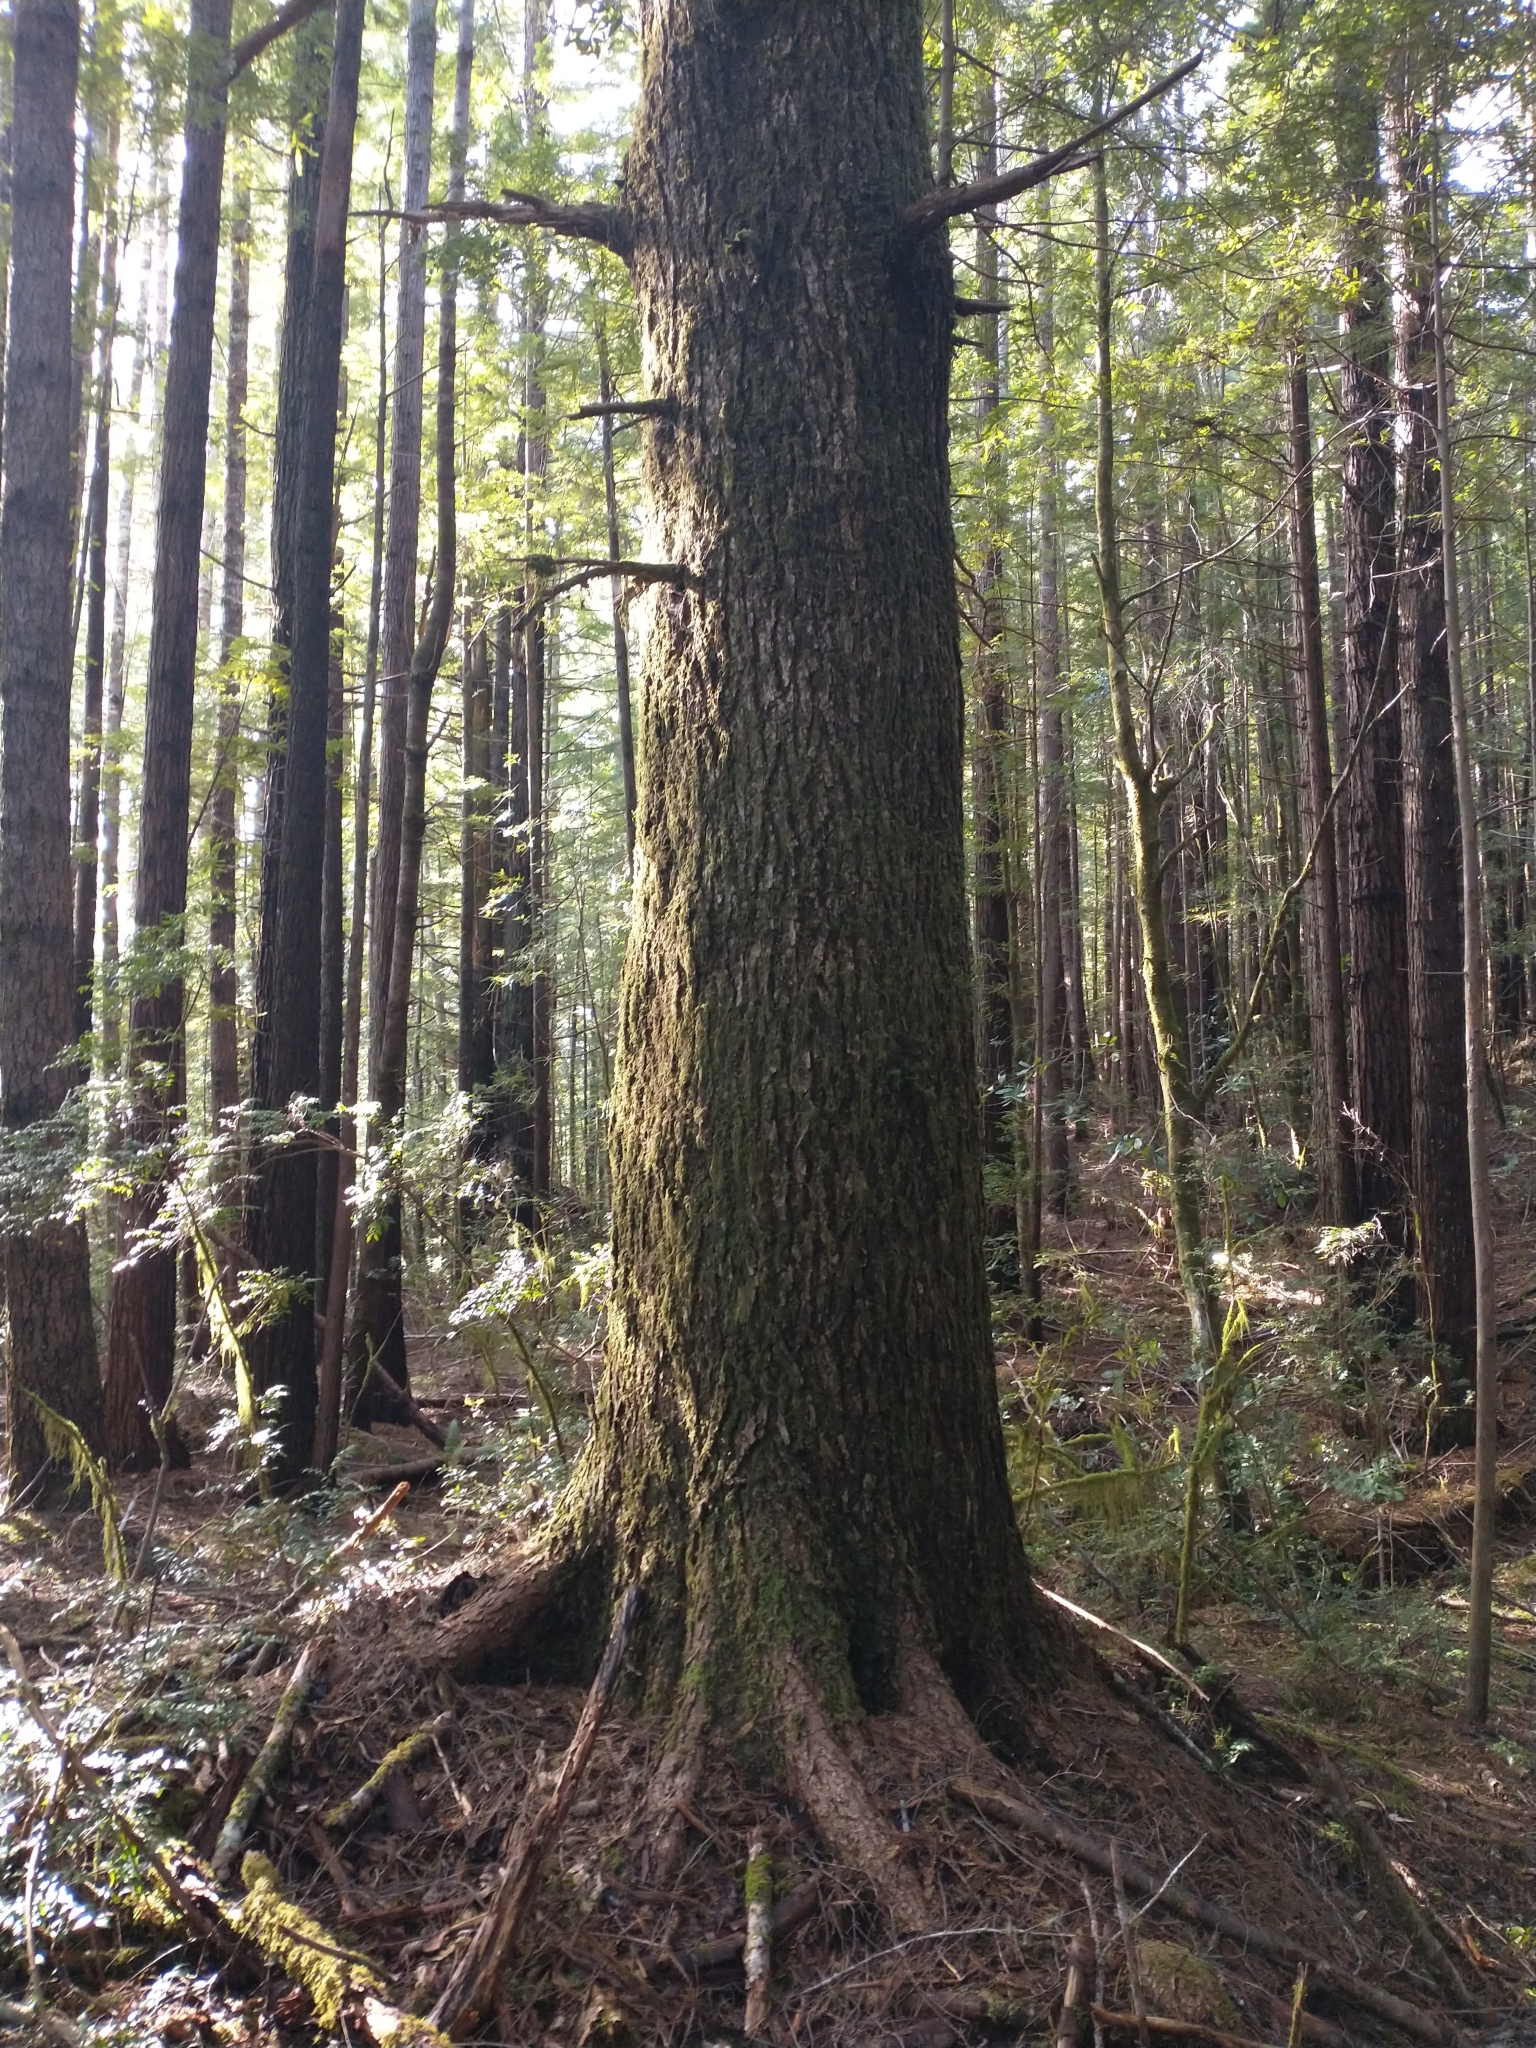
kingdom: Plantae
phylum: Tracheophyta
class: Pinopsida
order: Pinales
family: Pinaceae
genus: Tsuga
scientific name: Tsuga heterophylla
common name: Western hemlock
